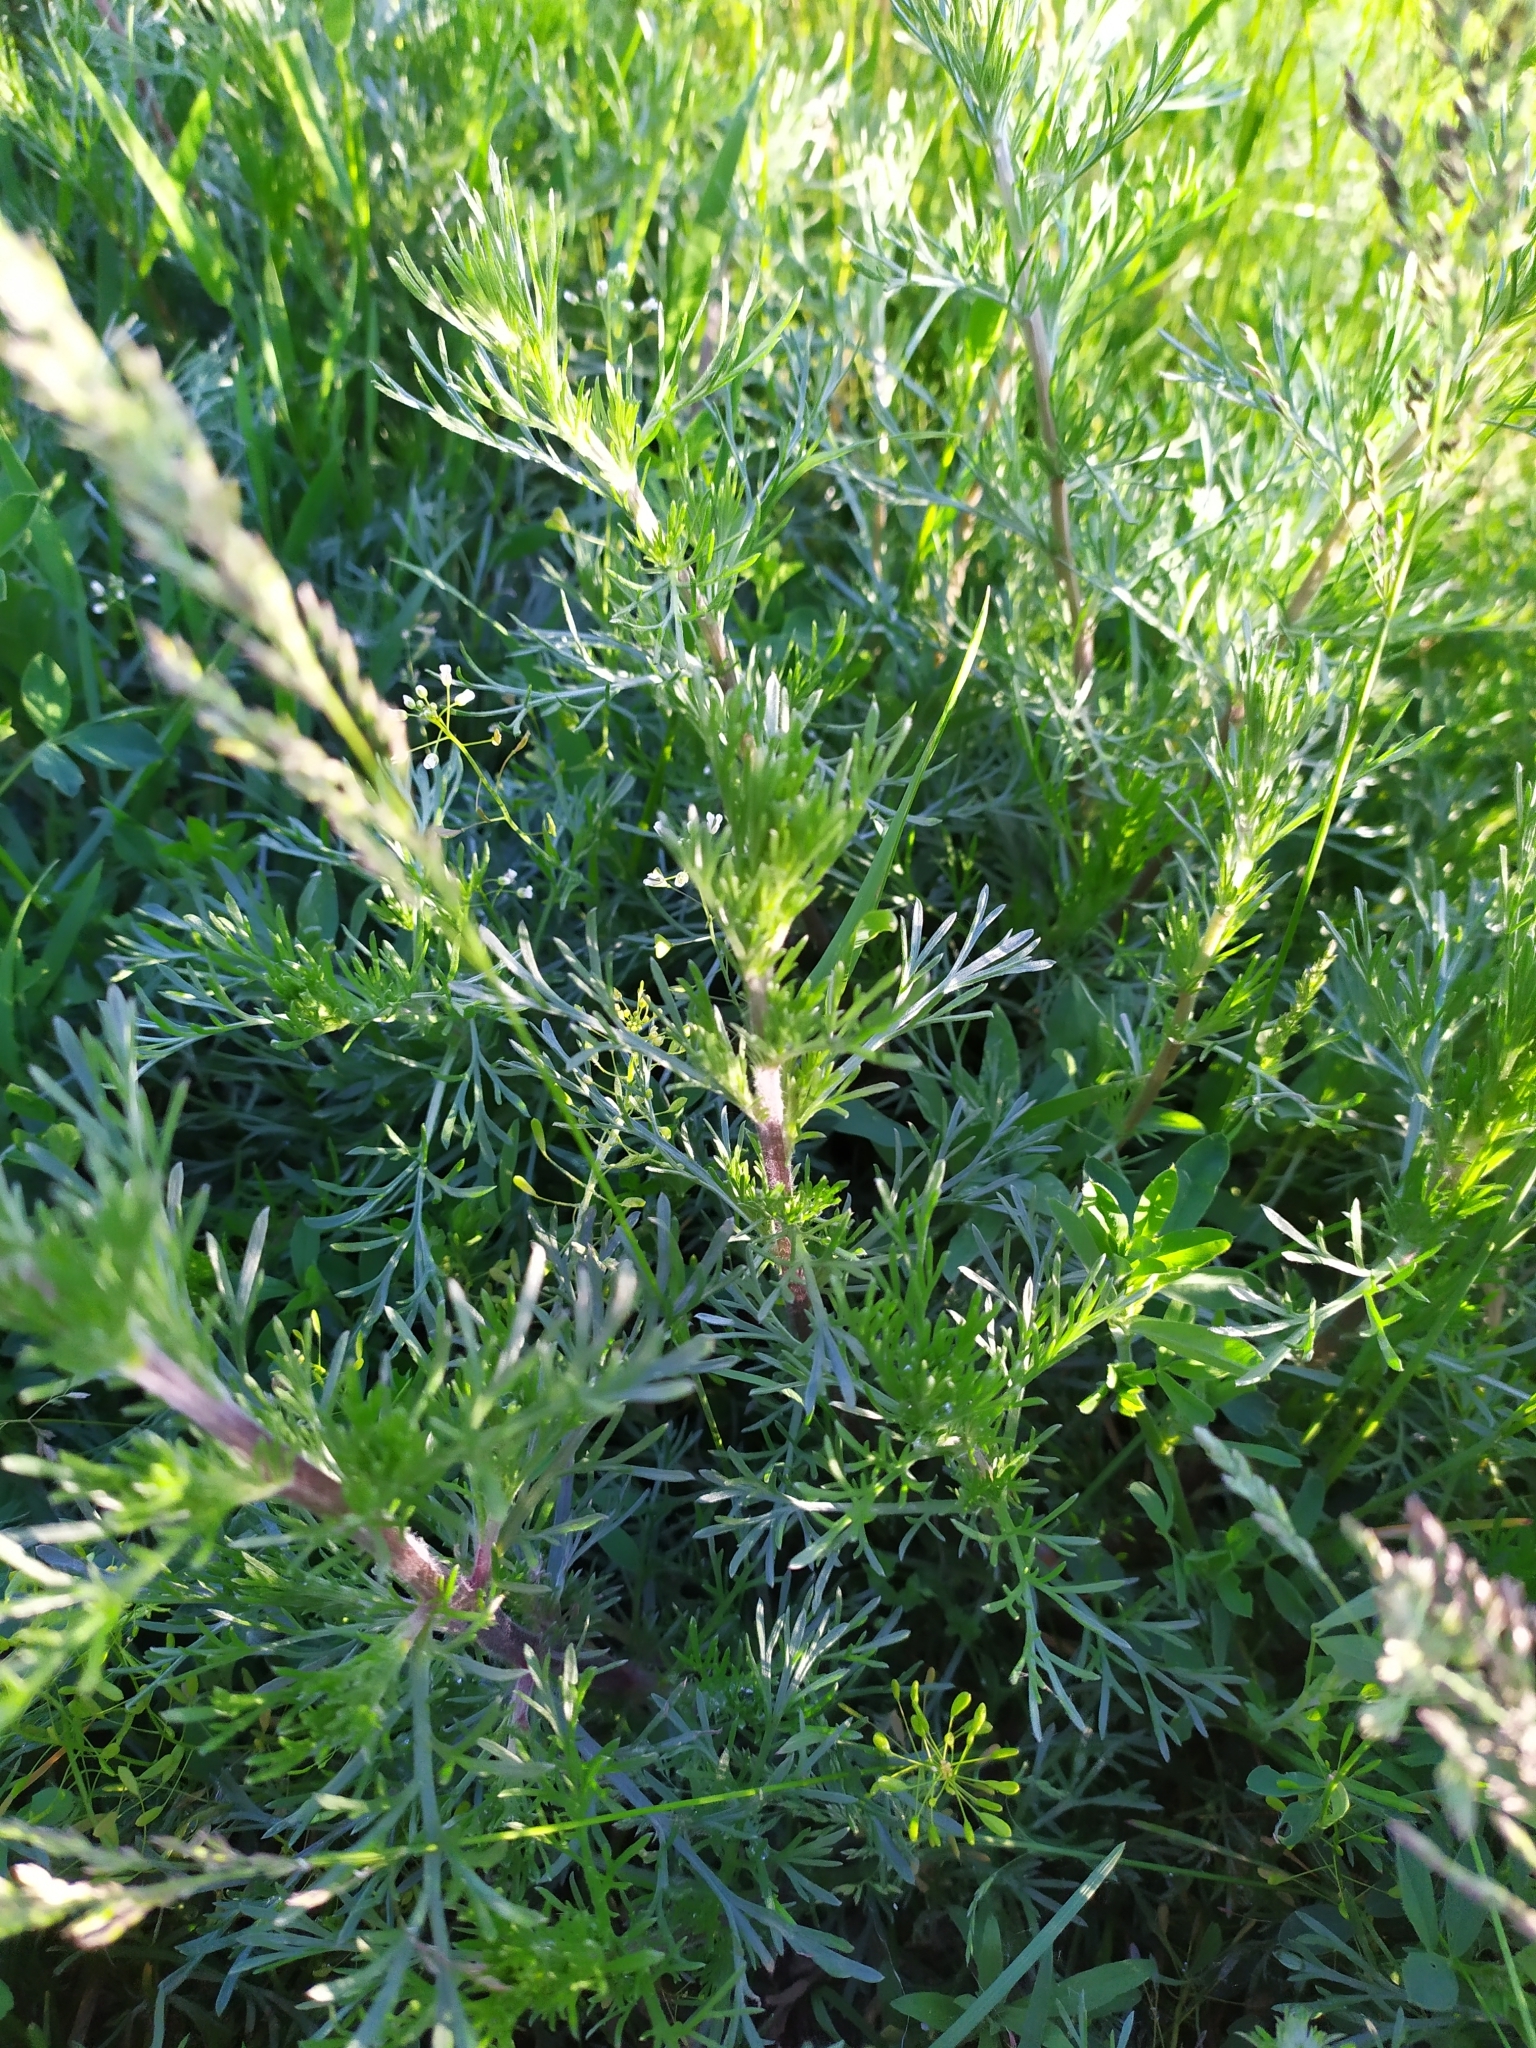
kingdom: Plantae
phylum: Tracheophyta
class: Magnoliopsida
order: Asterales
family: Asteraceae
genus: Artemisia
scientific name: Artemisia campestris
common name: Field wormwood
